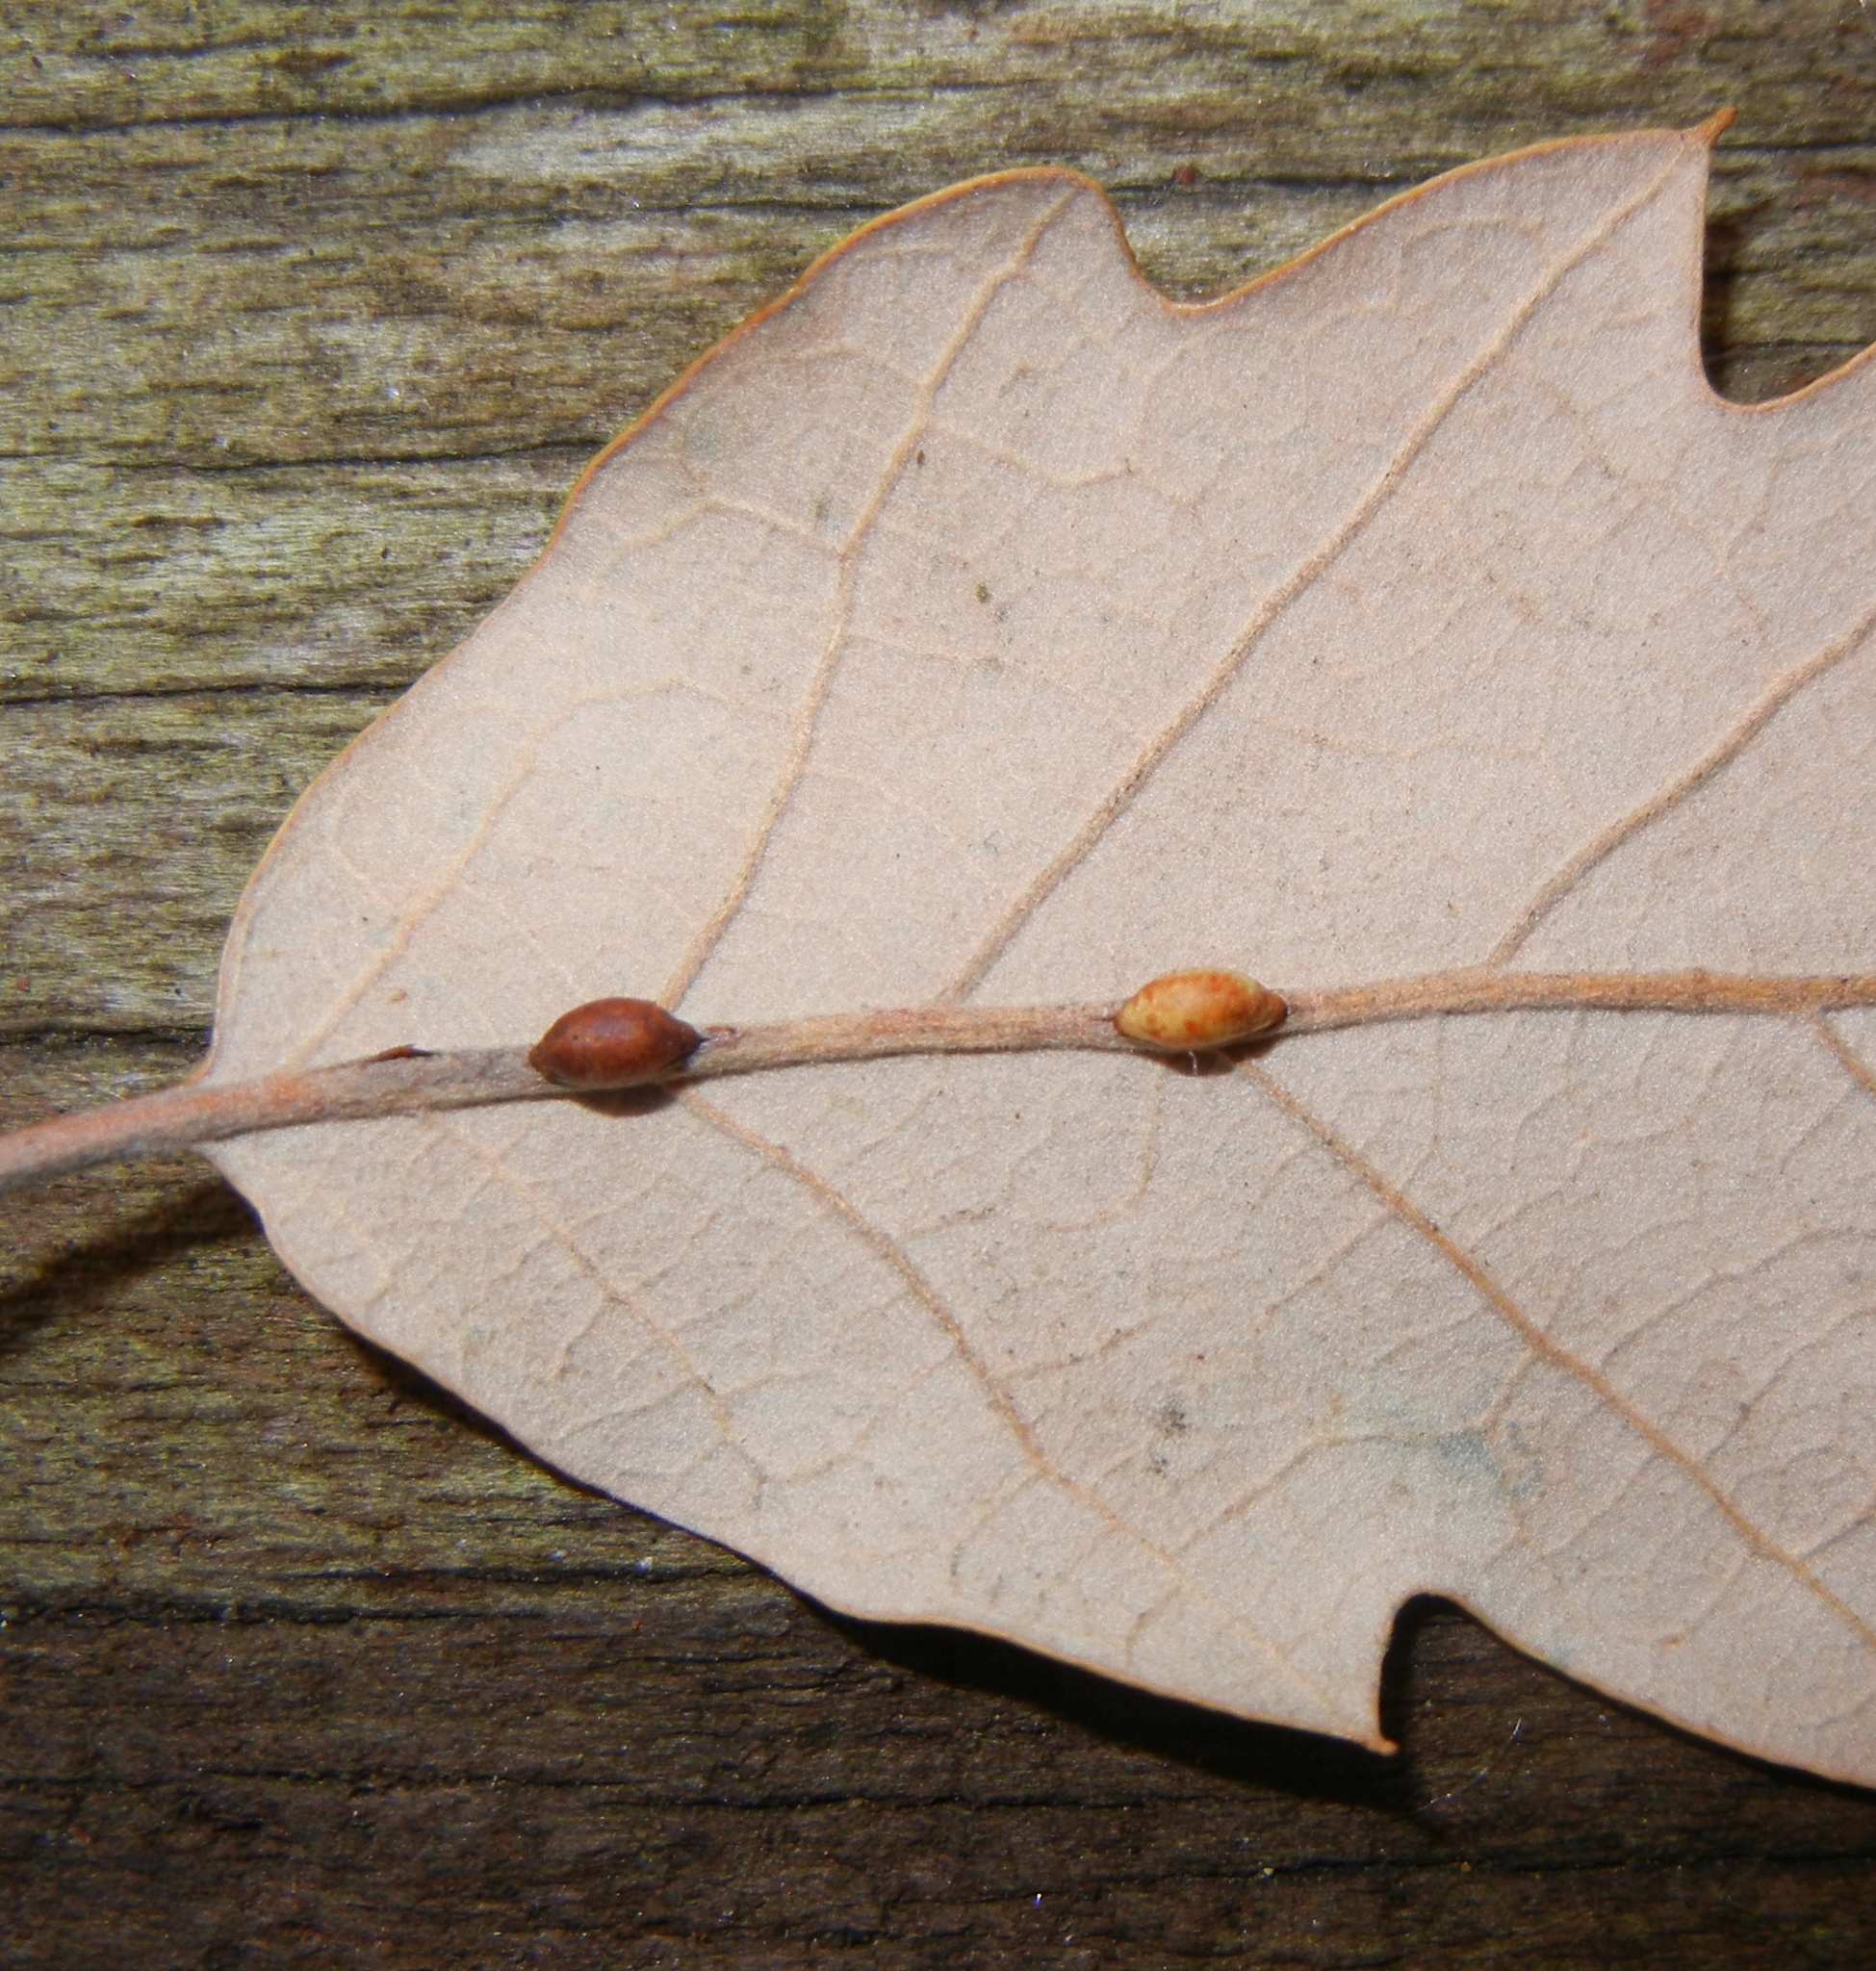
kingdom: Animalia
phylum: Arthropoda
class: Insecta
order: Hymenoptera
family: Cynipidae
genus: Neuroterus
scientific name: Neuroterus saliens
